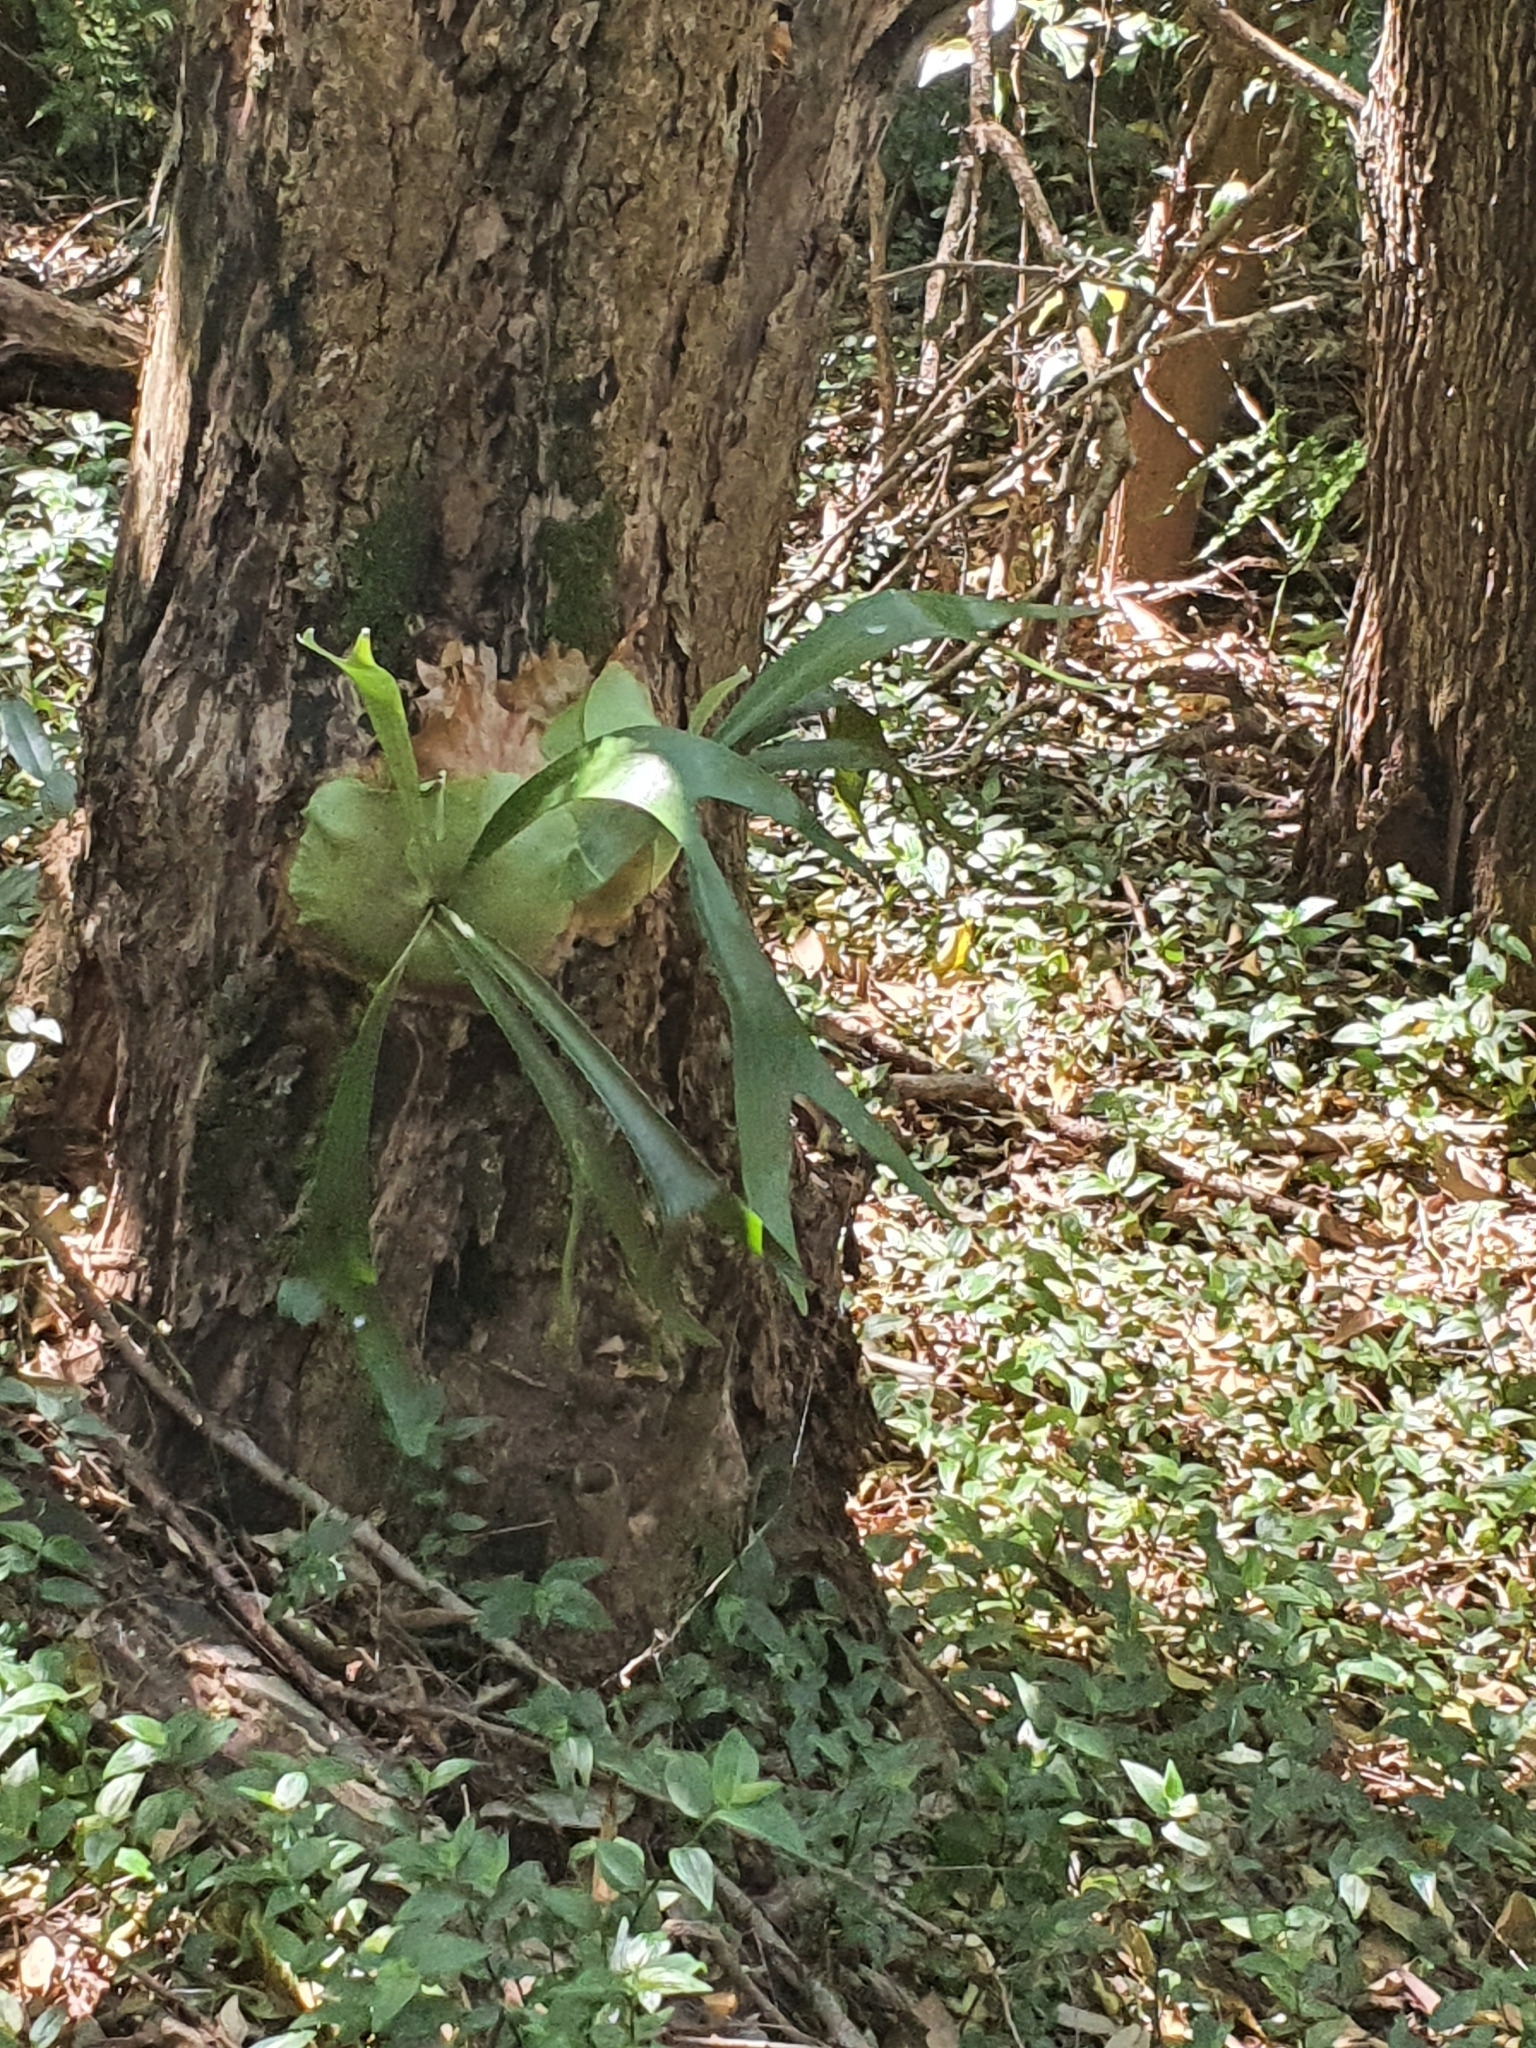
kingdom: Plantae
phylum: Tracheophyta
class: Polypodiopsida
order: Polypodiales
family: Polypodiaceae
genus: Platycerium
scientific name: Platycerium bifurcatum
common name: Elkhorn fern
